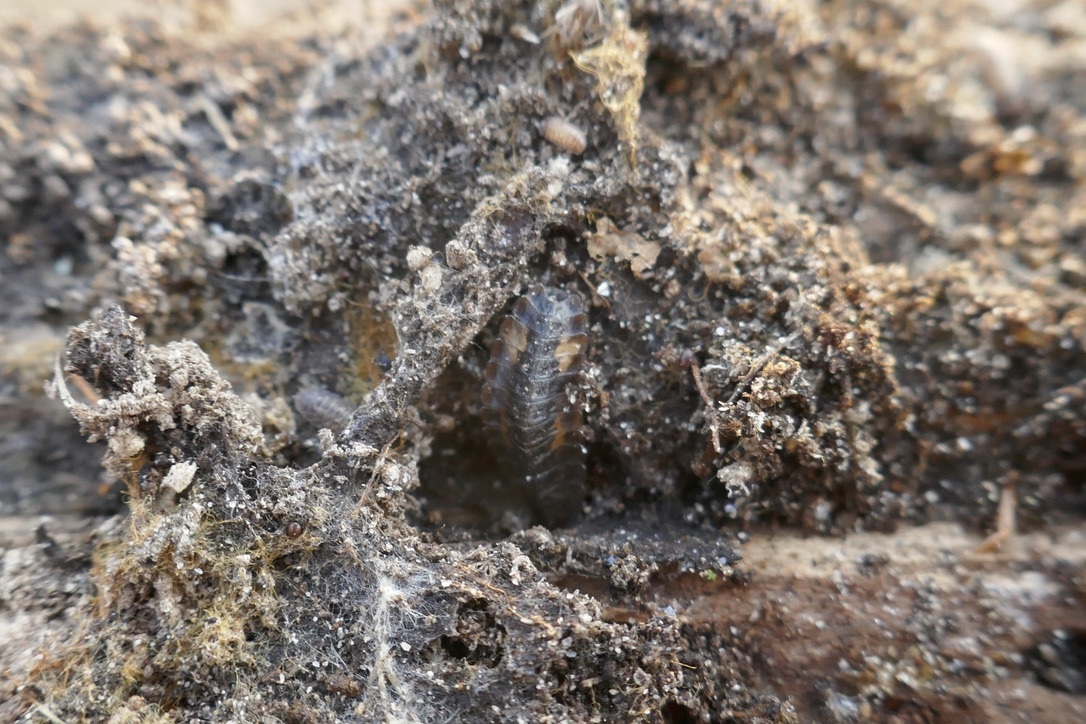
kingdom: Animalia
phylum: Arthropoda
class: Insecta
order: Coleoptera
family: Lampyridae
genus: Lamprohiza
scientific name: Lamprohiza splendidula
